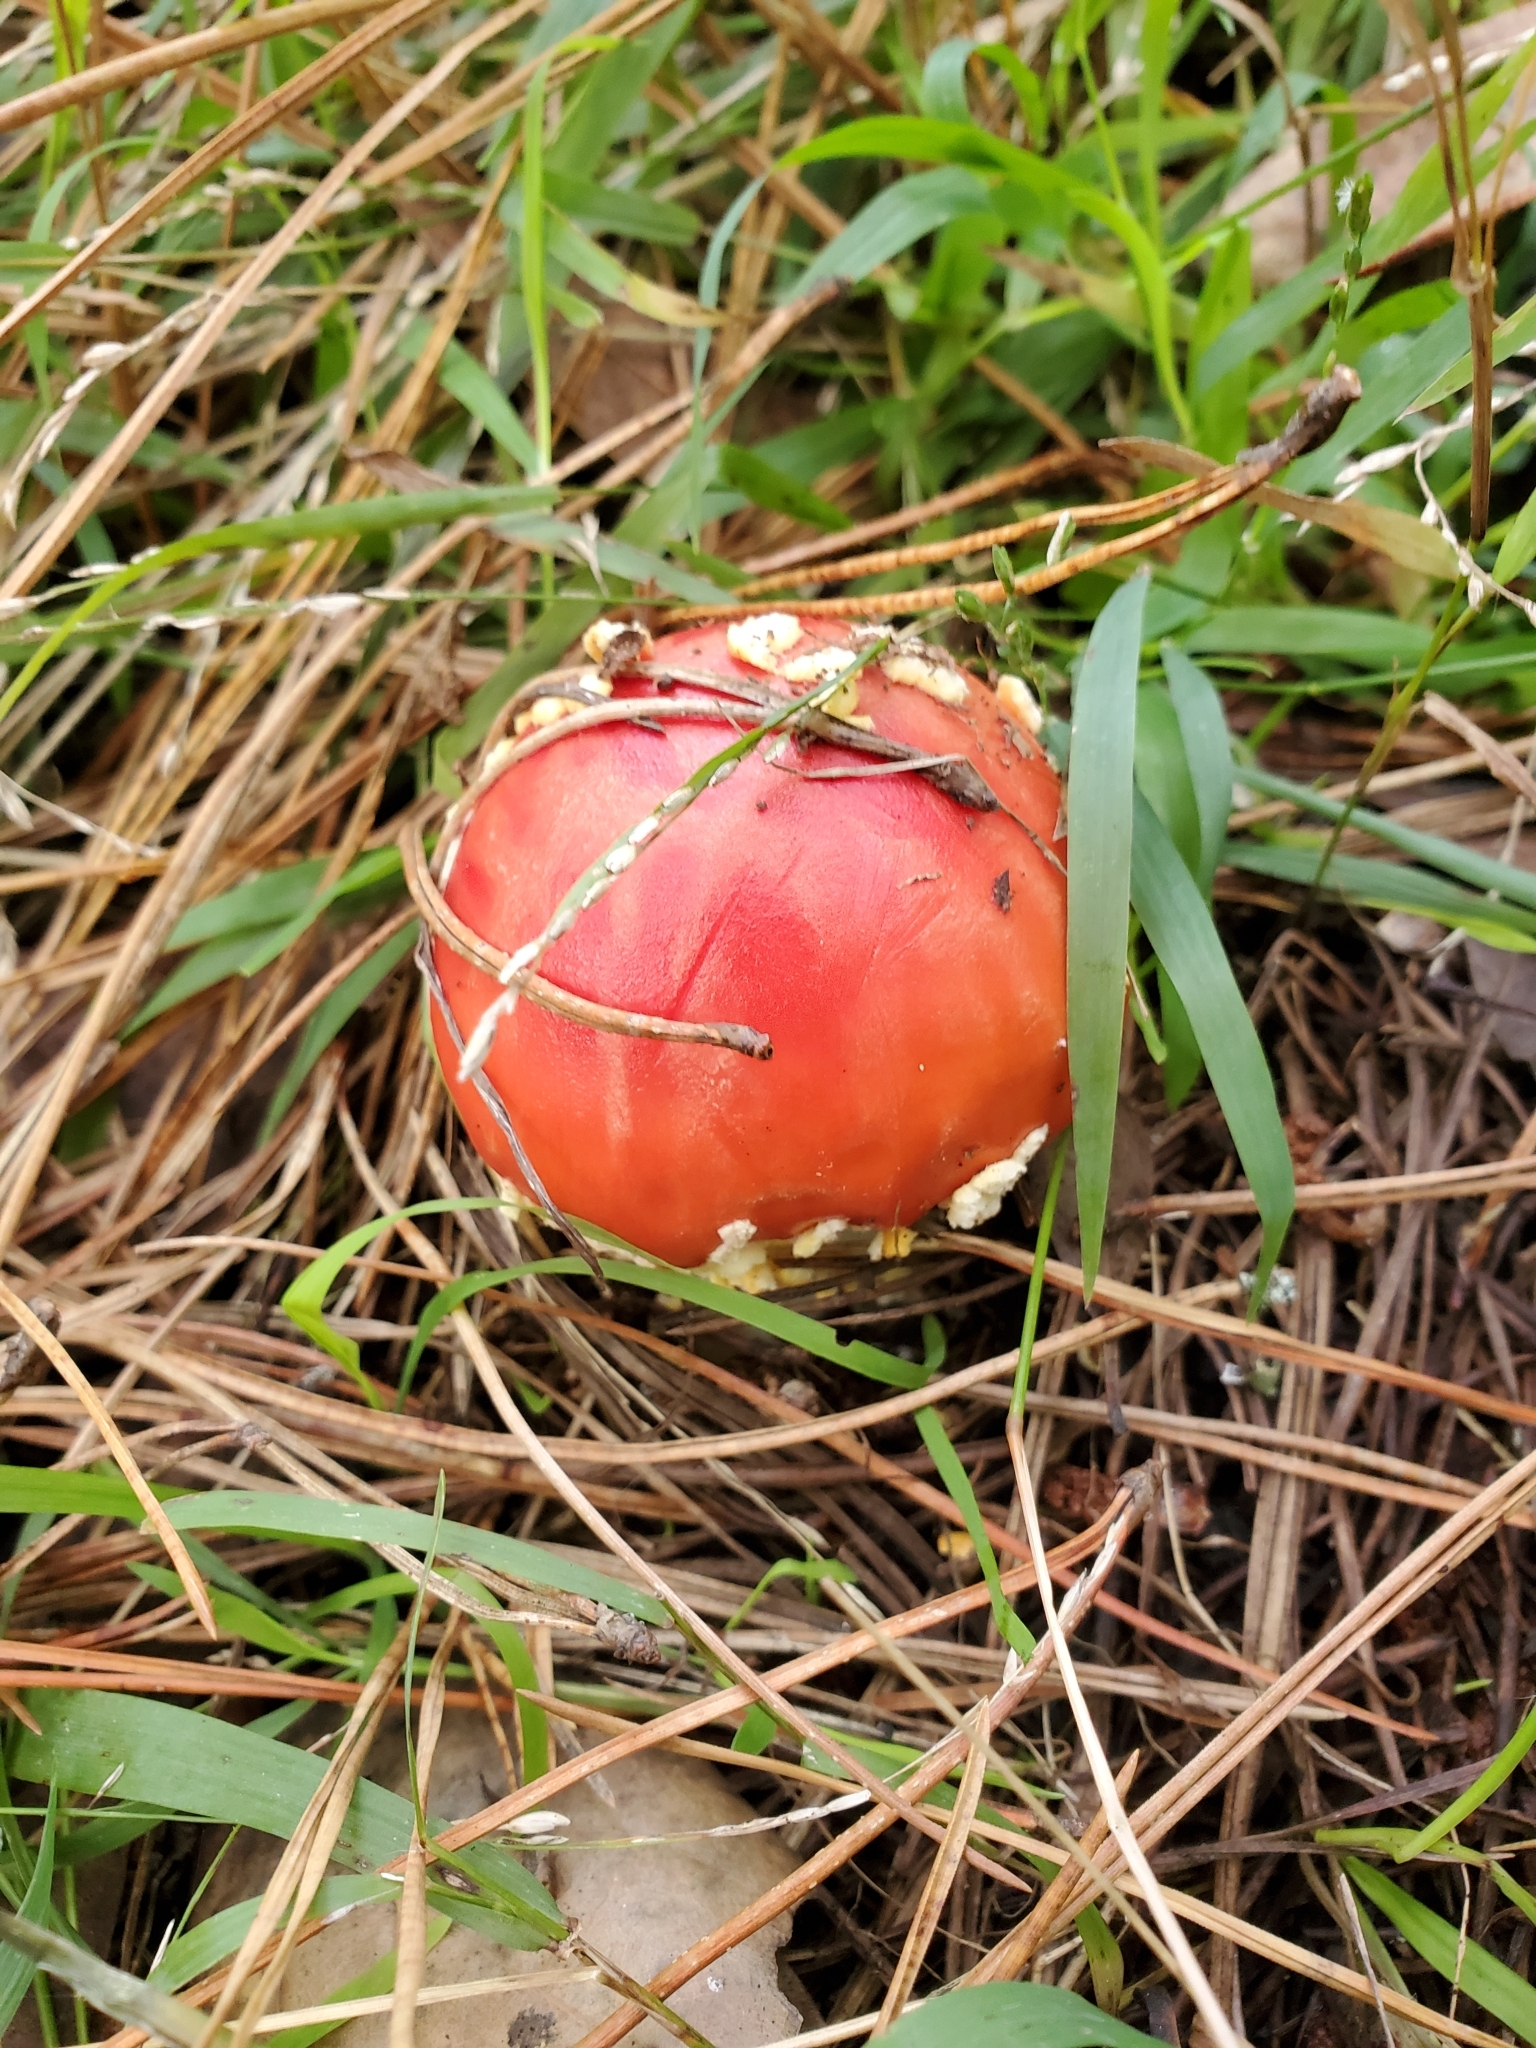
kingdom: Fungi
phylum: Basidiomycota
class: Agaricomycetes
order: Agaricales
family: Amanitaceae
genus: Amanita
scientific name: Amanita muscaria
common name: Fly agaric
